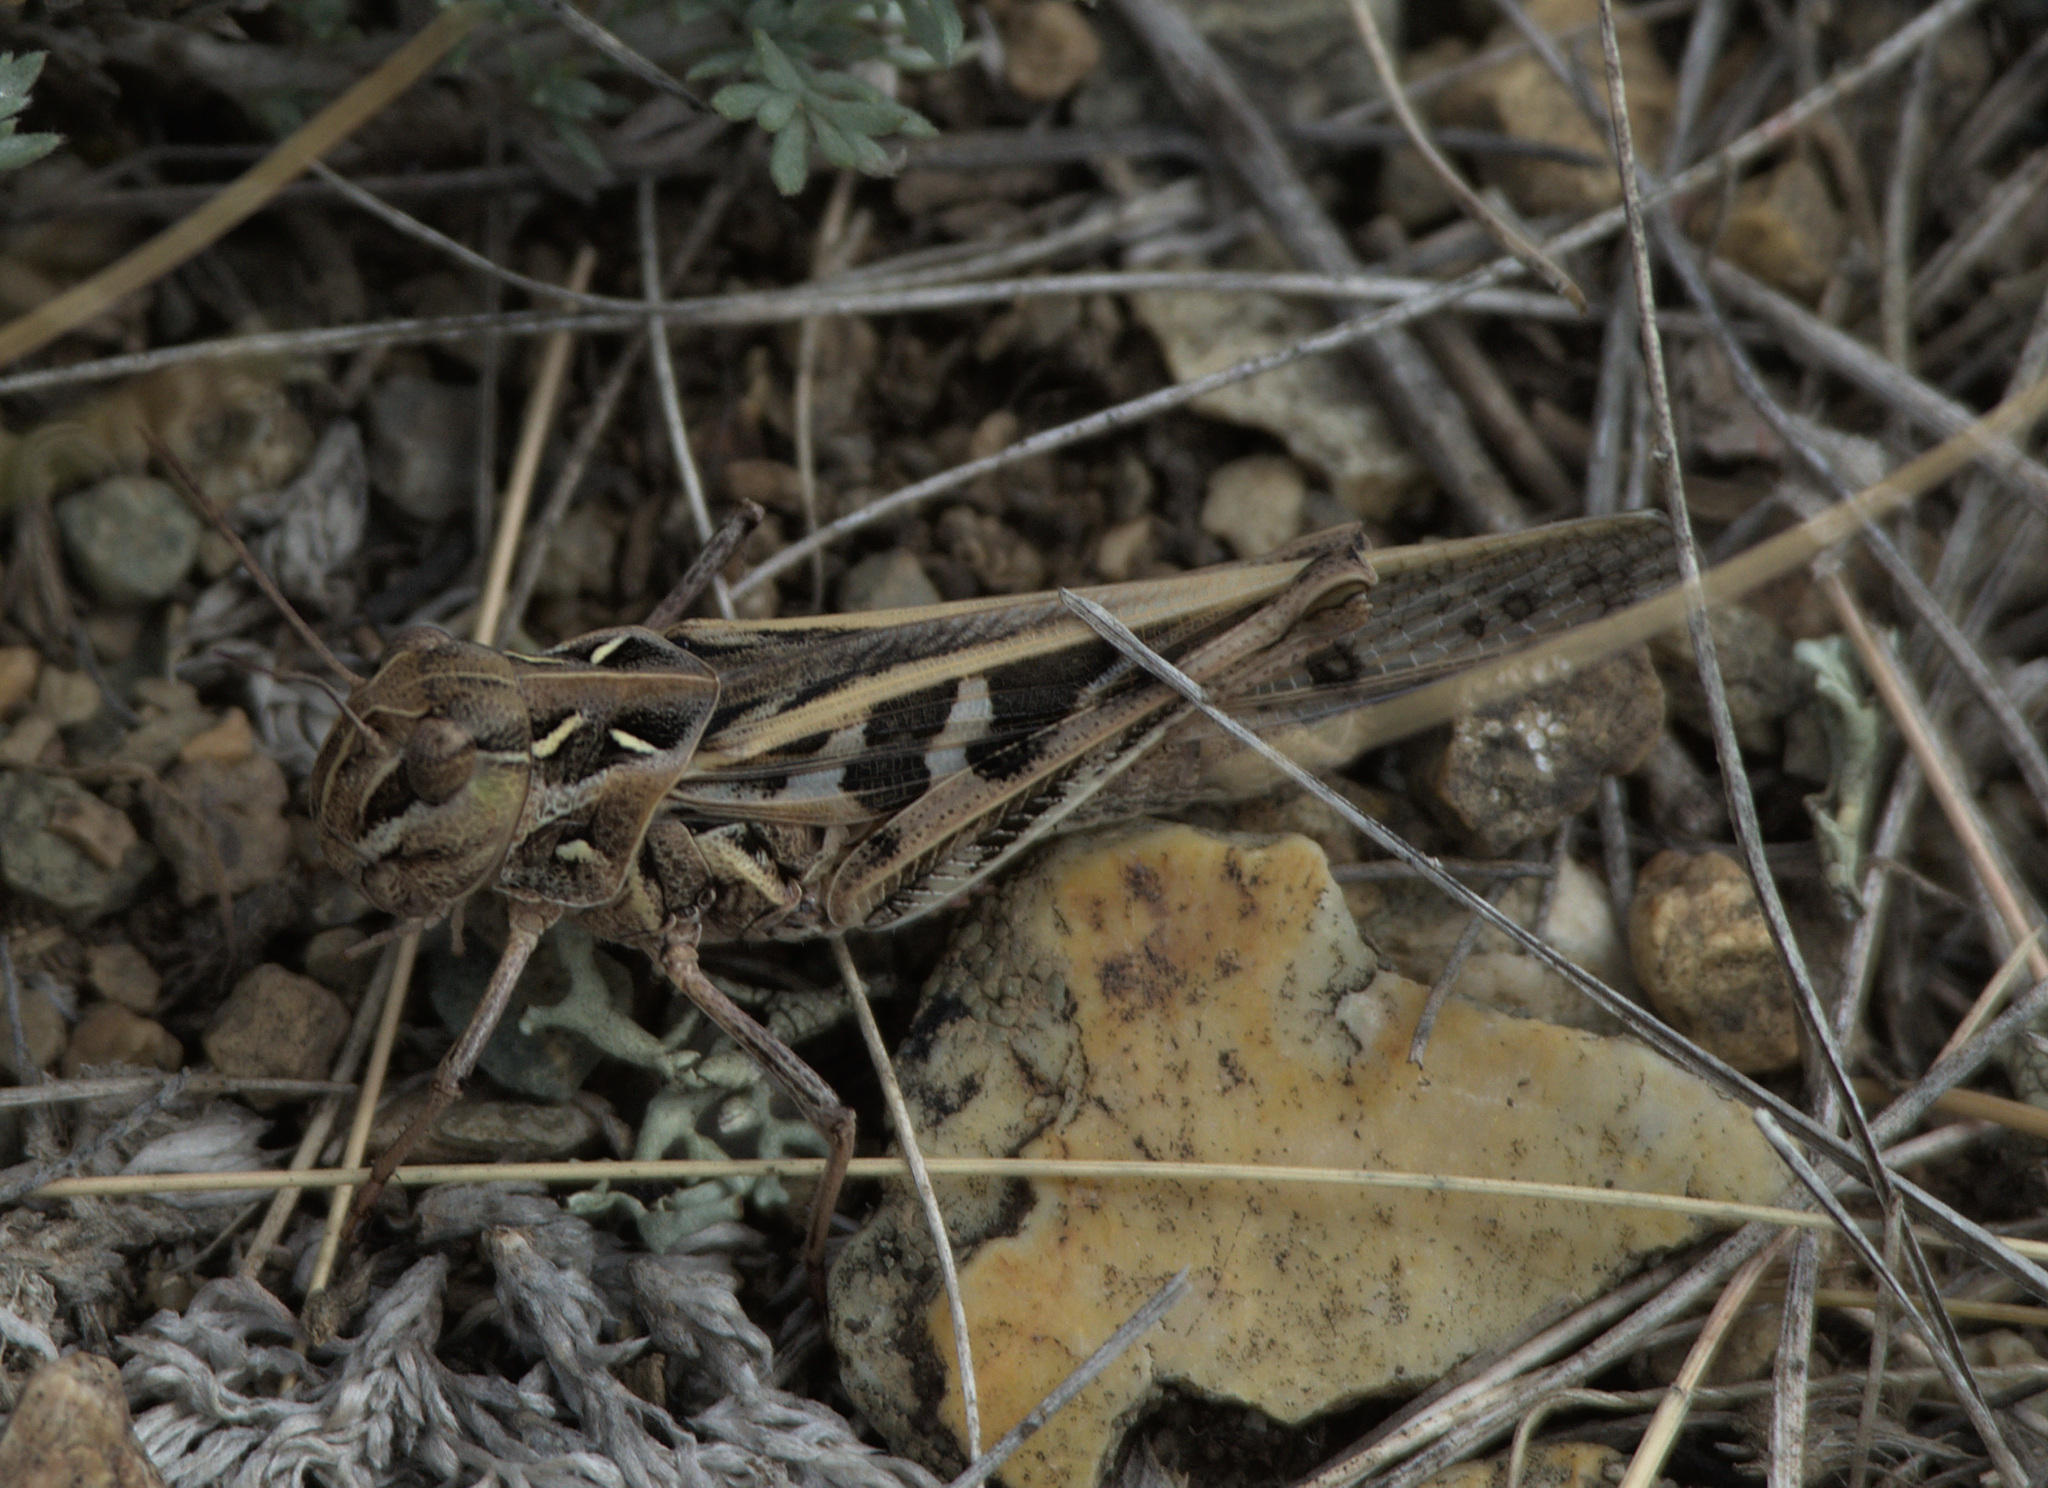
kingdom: Animalia
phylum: Arthropoda
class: Insecta
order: Orthoptera
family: Acrididae
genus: Oedaleus
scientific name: Oedaleus decorus
